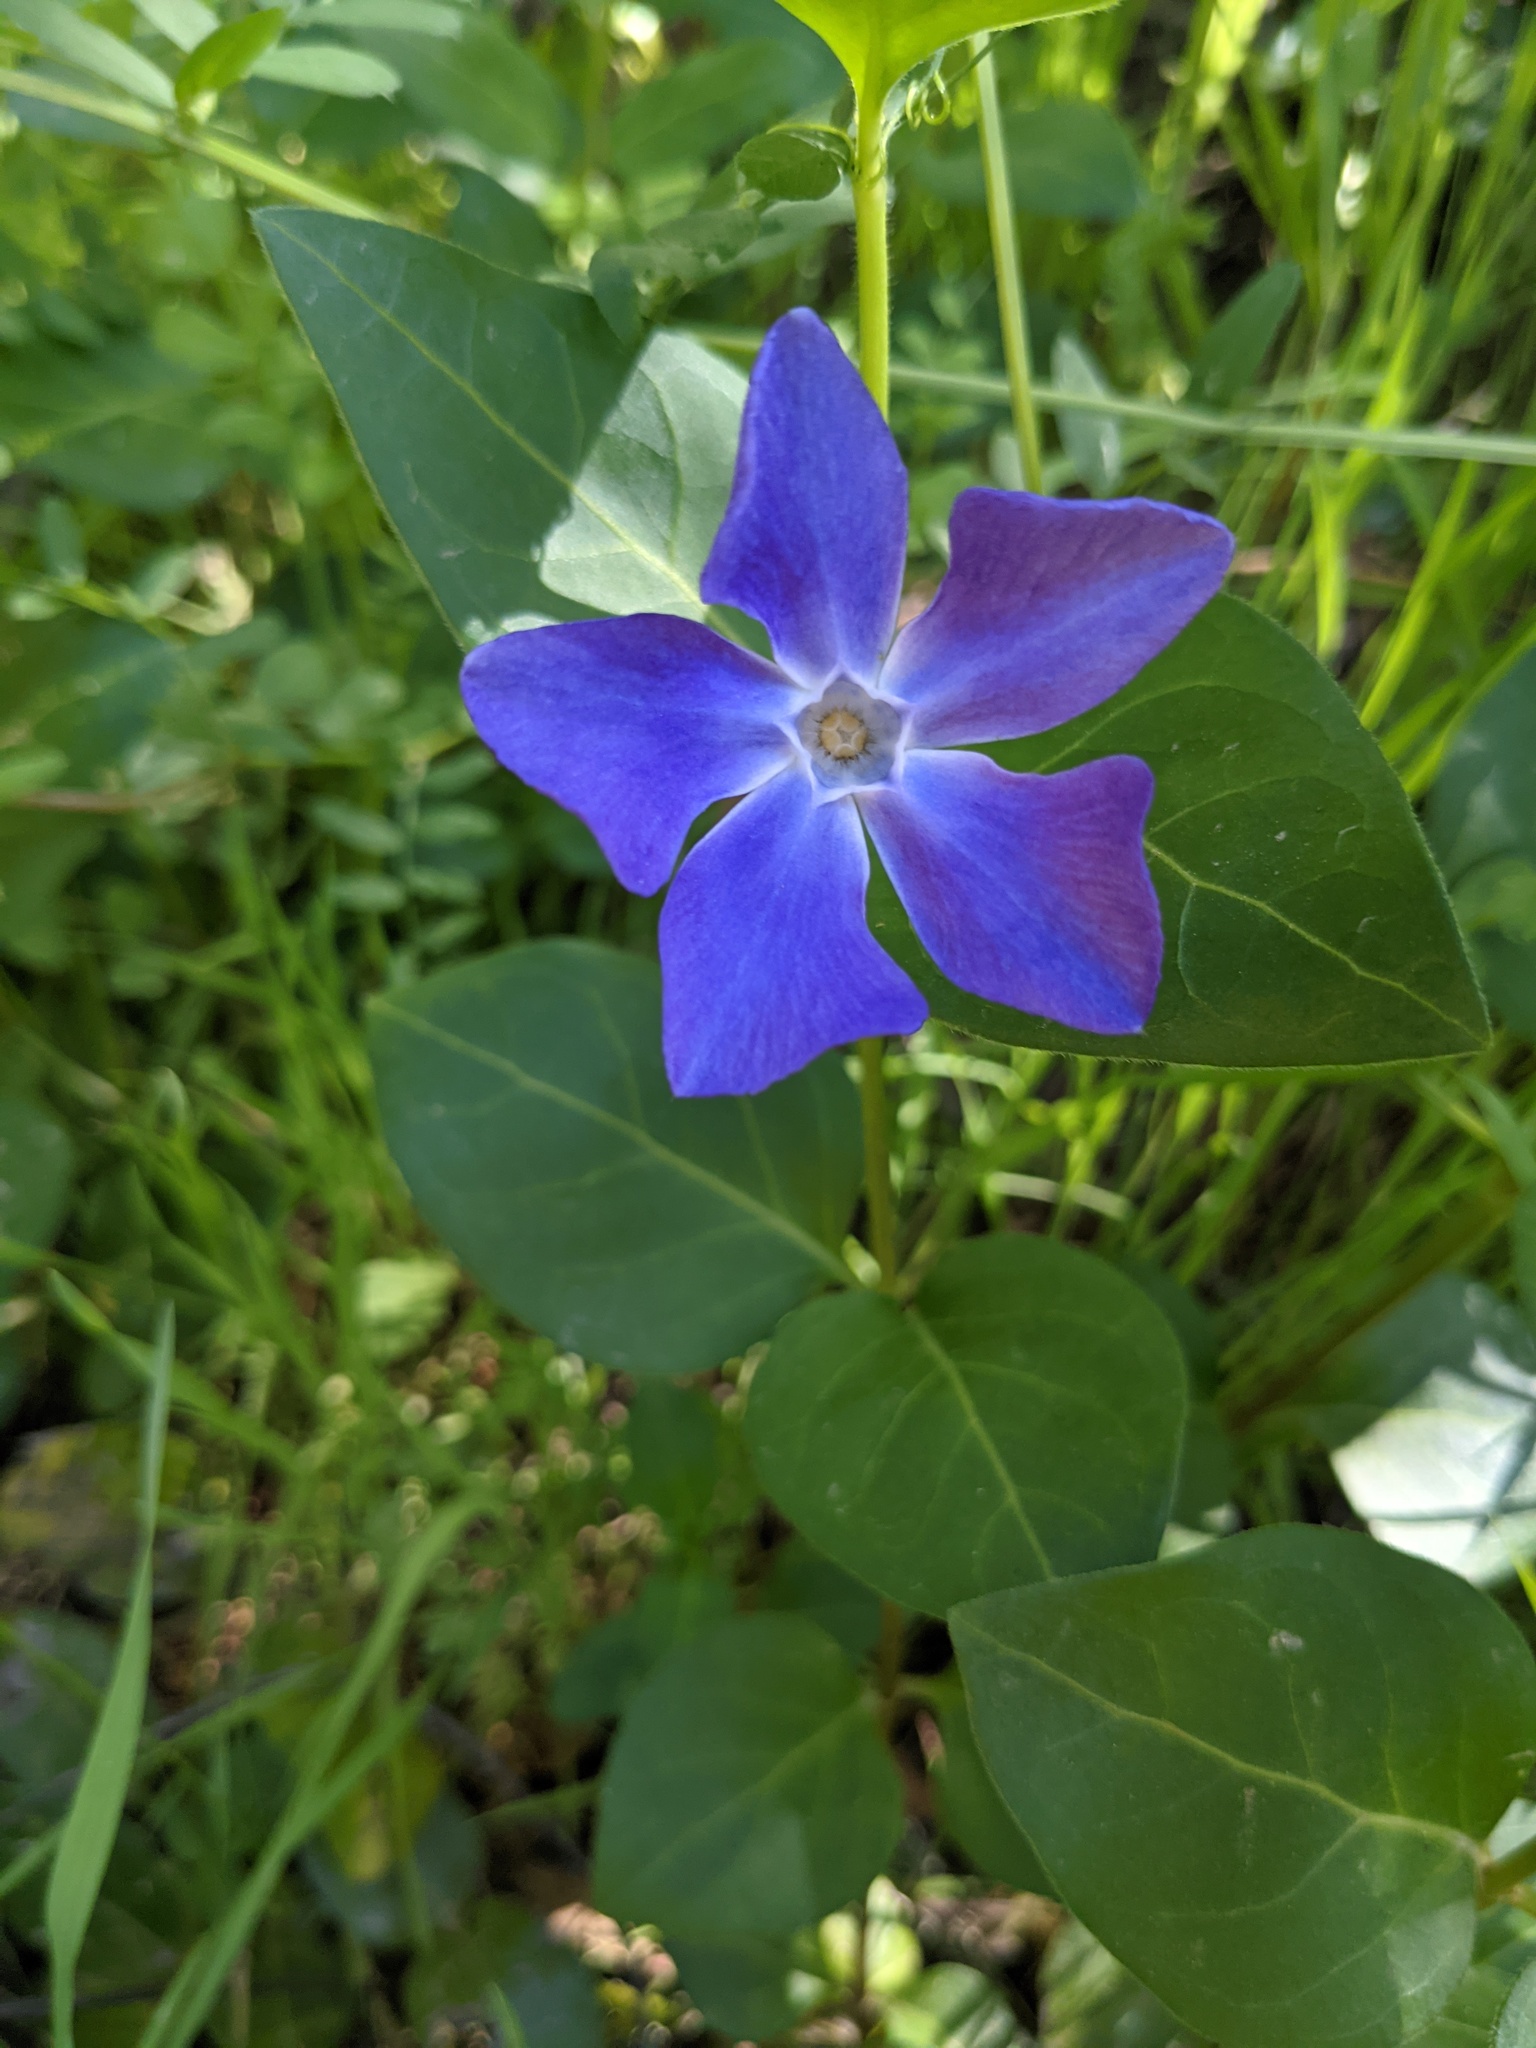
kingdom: Plantae
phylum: Tracheophyta
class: Magnoliopsida
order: Gentianales
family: Apocynaceae
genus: Vinca
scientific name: Vinca major
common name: Greater periwinkle
